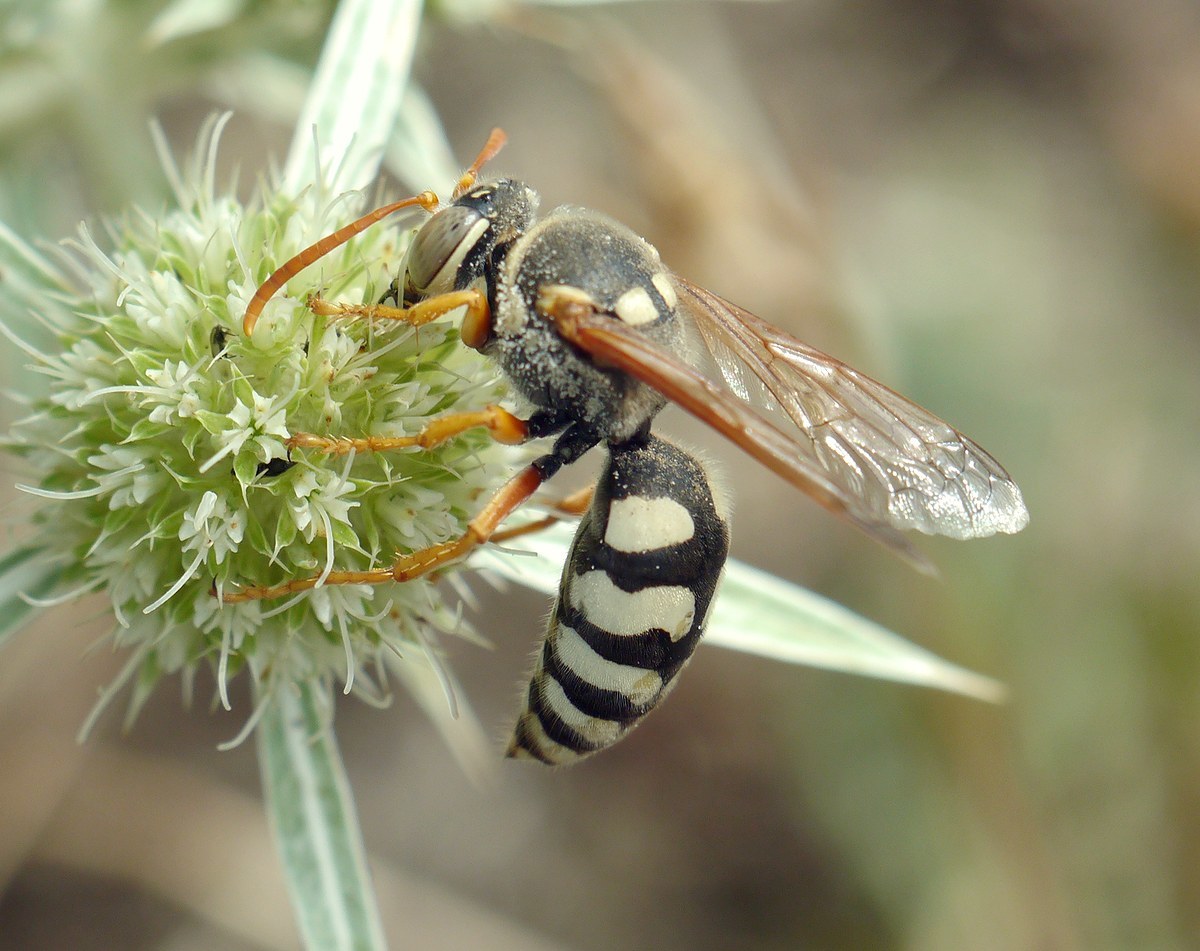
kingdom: Animalia
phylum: Arthropoda
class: Insecta
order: Hymenoptera
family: Crabronidae
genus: Stizus
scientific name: Stizus bipunctatus
